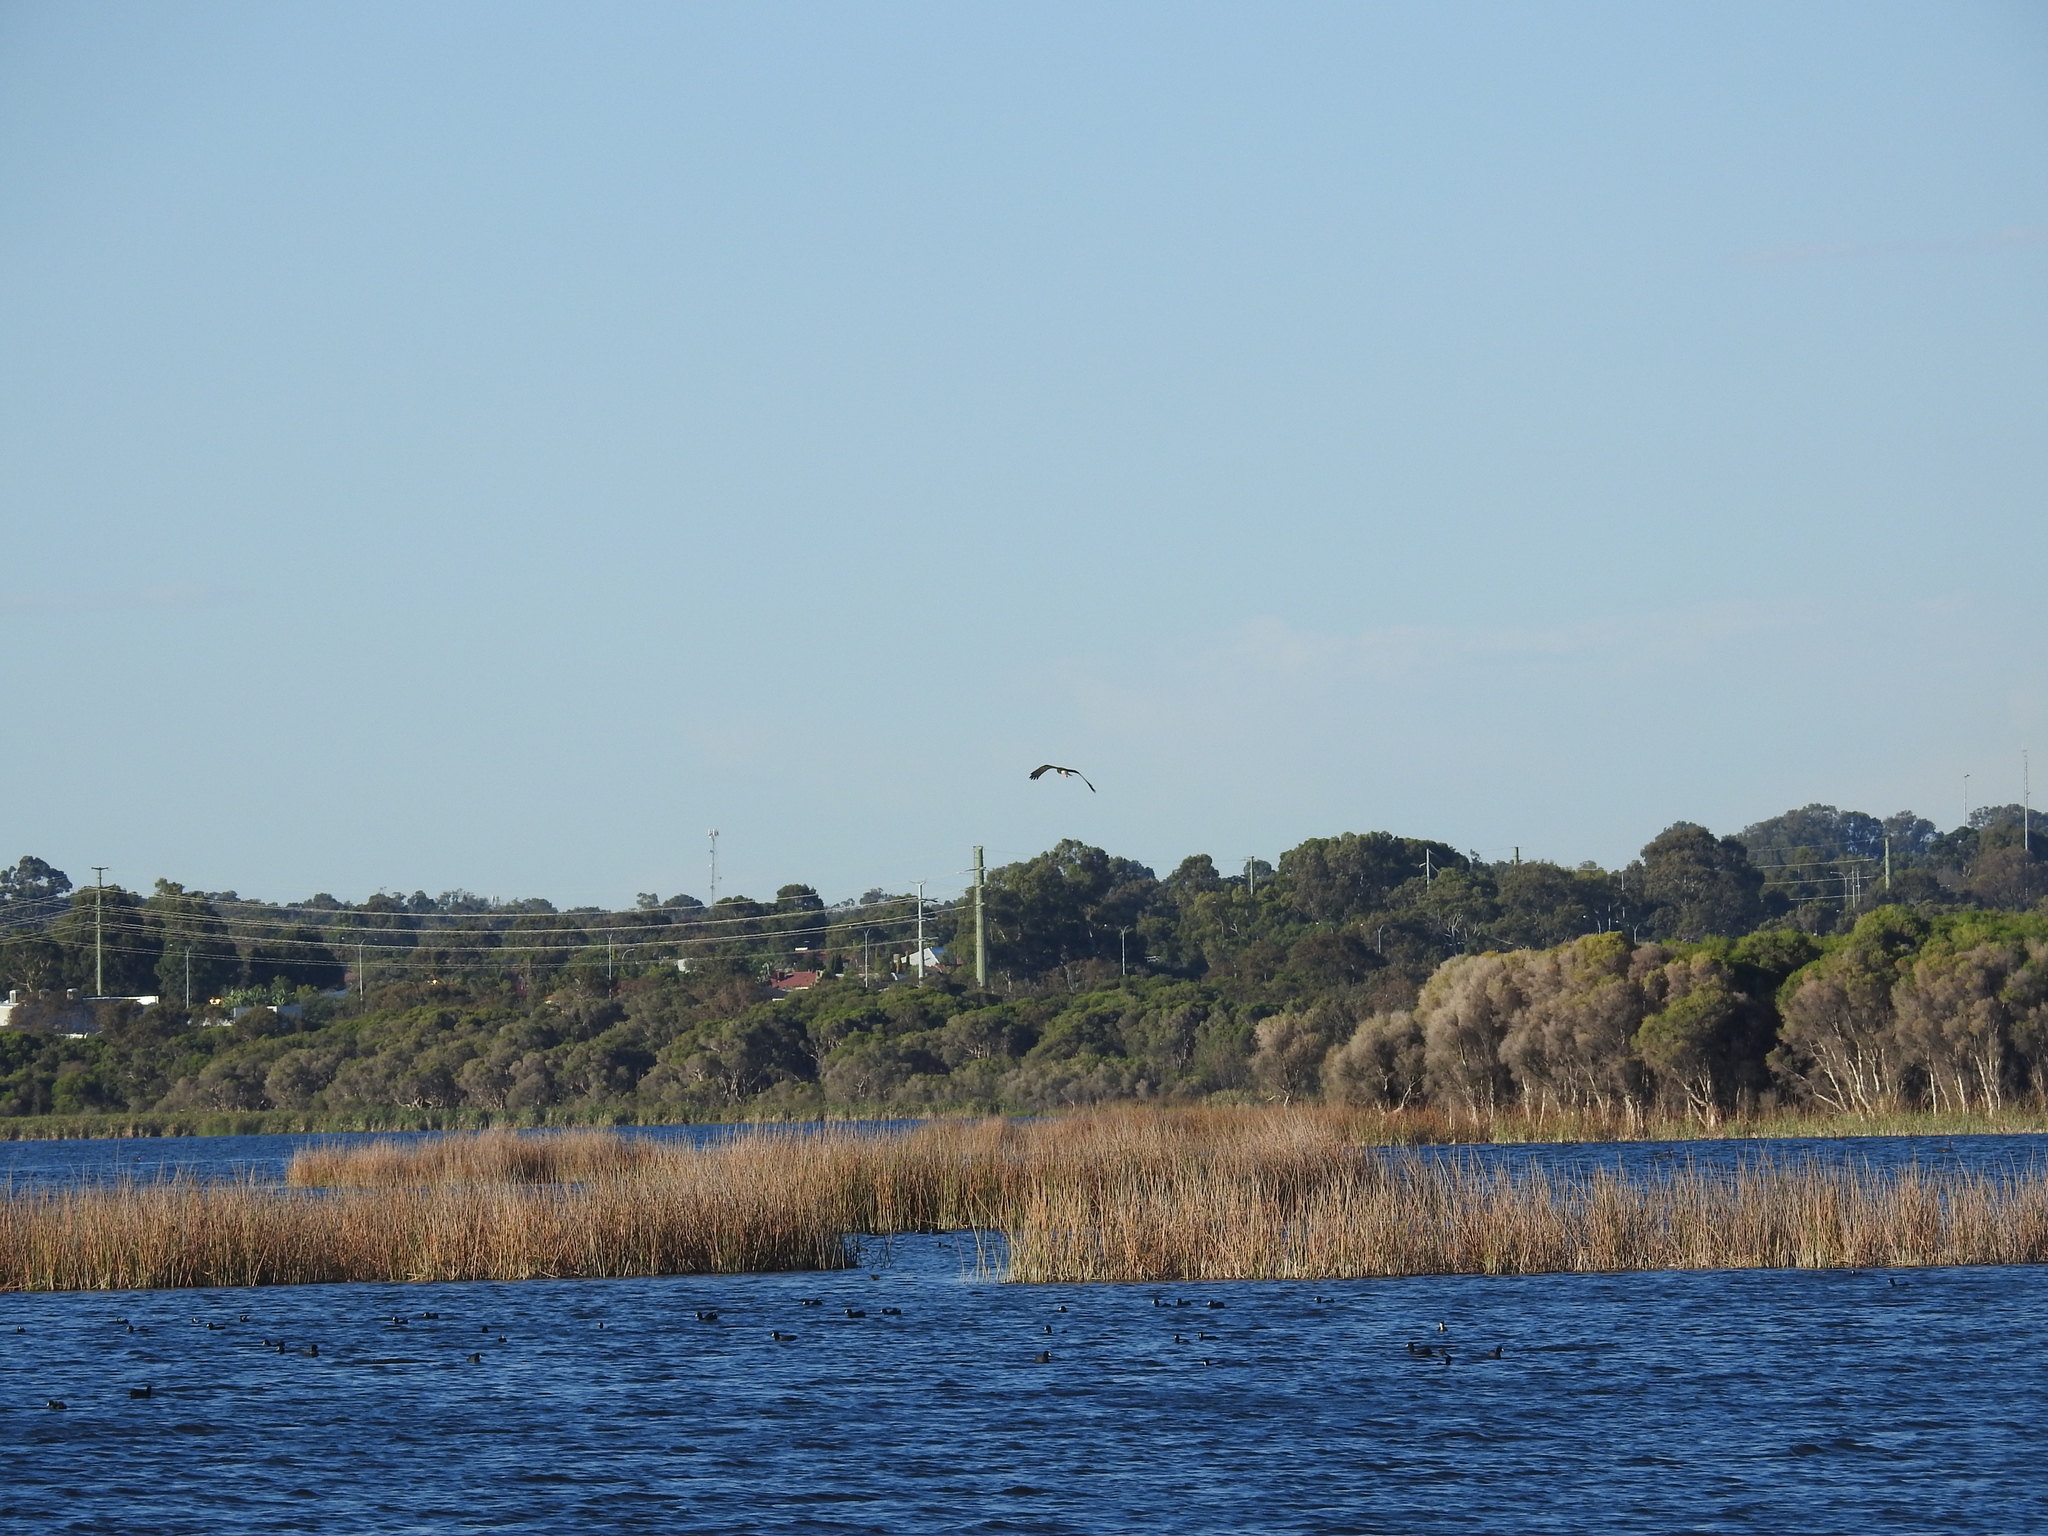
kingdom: Animalia
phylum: Chordata
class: Aves
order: Accipitriformes
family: Accipitridae
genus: Circus
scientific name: Circus approximans
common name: Swamp harrier
